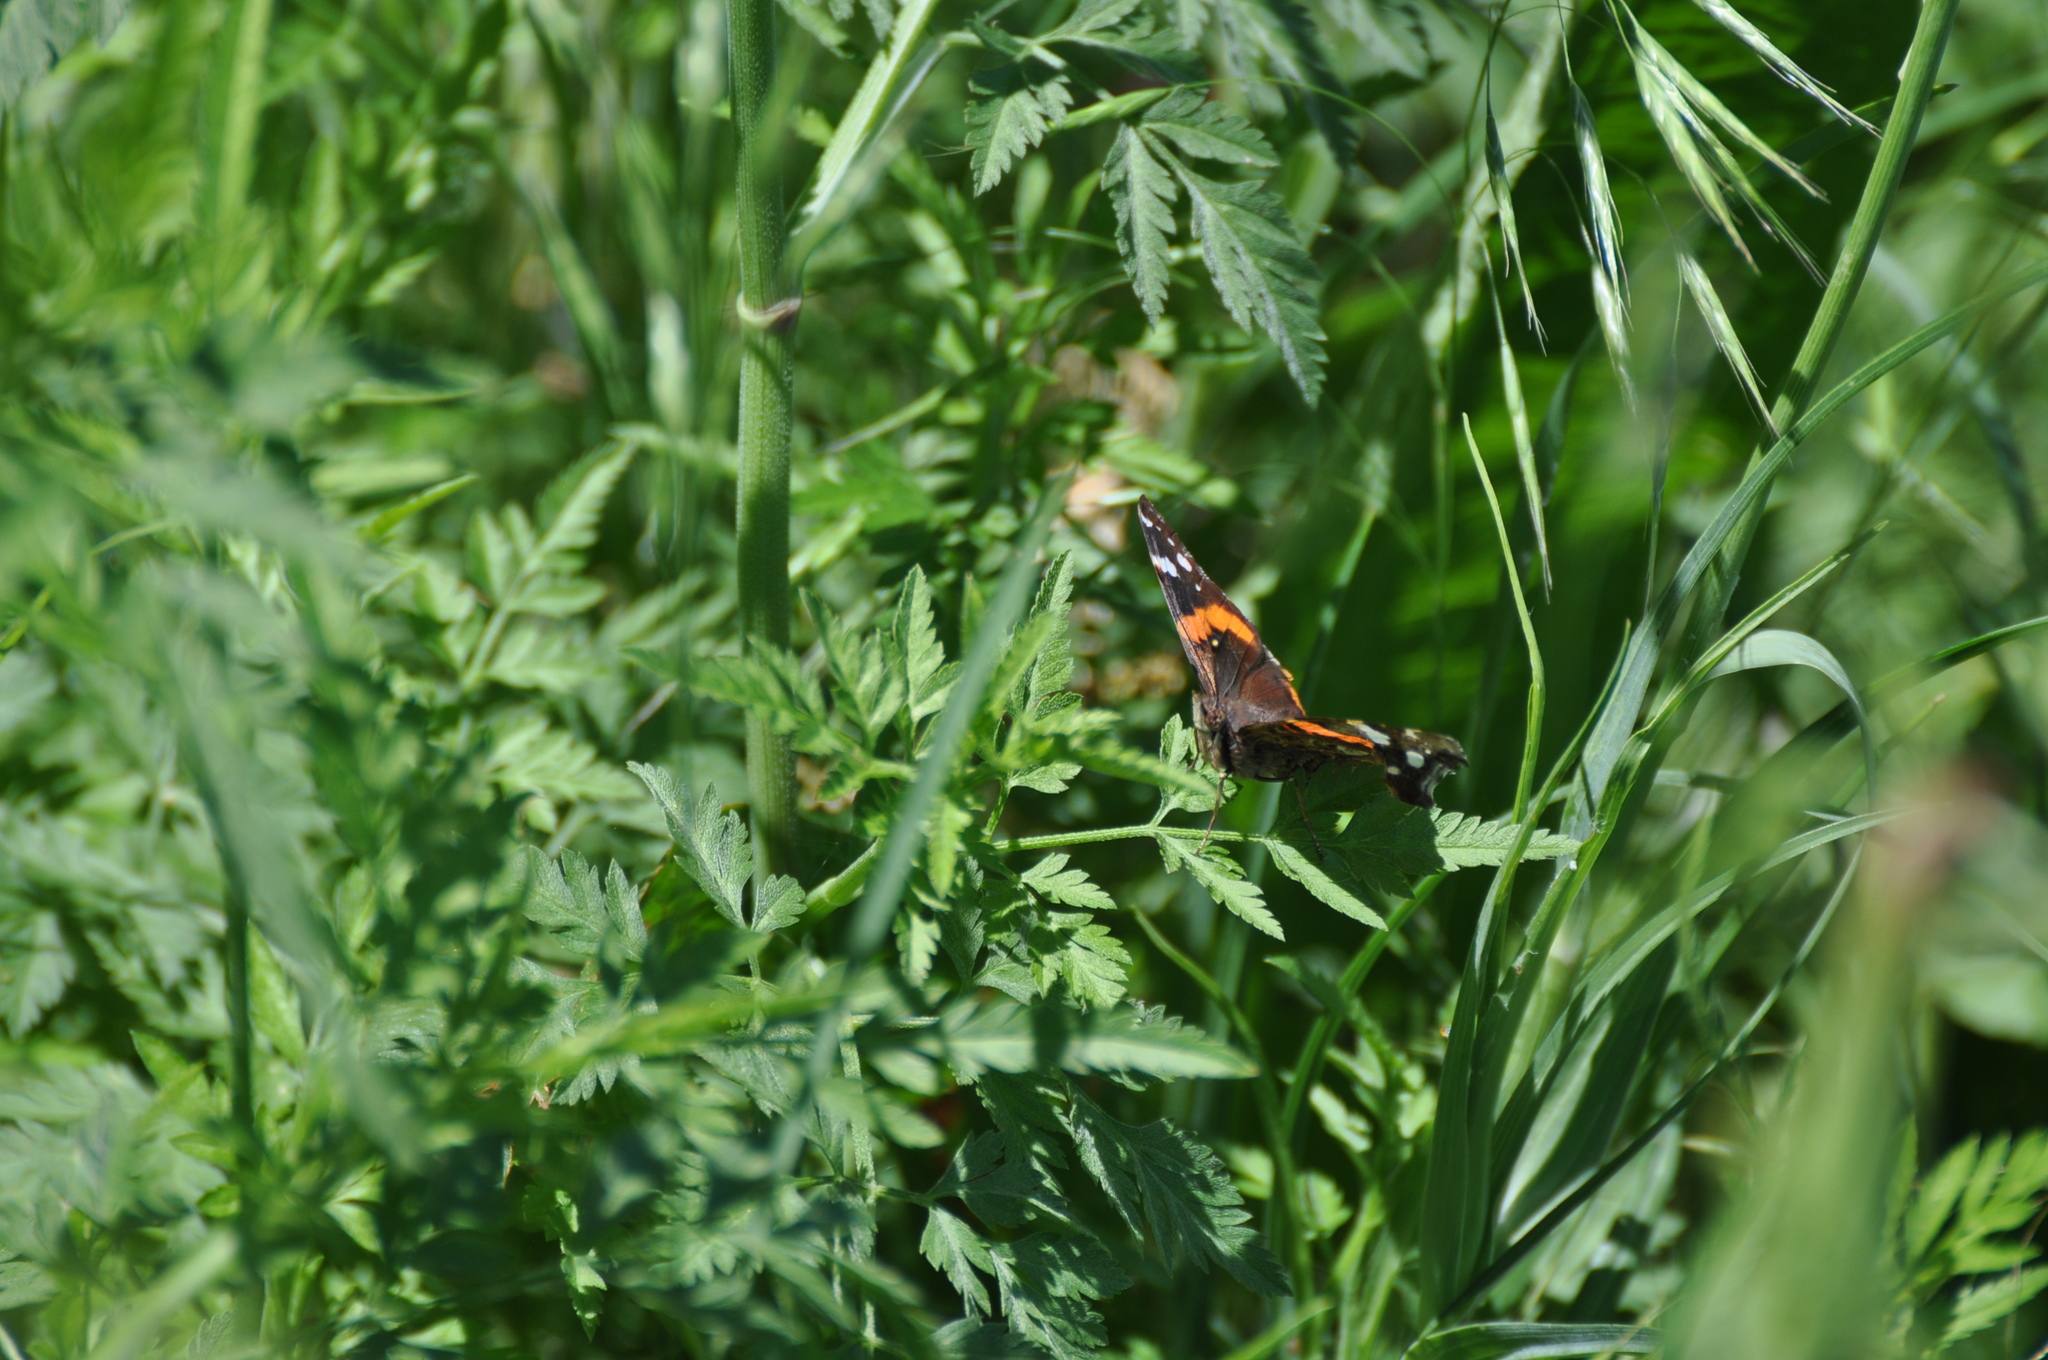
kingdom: Animalia
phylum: Arthropoda
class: Insecta
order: Lepidoptera
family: Nymphalidae
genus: Vanessa
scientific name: Vanessa atalanta
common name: Red admiral
